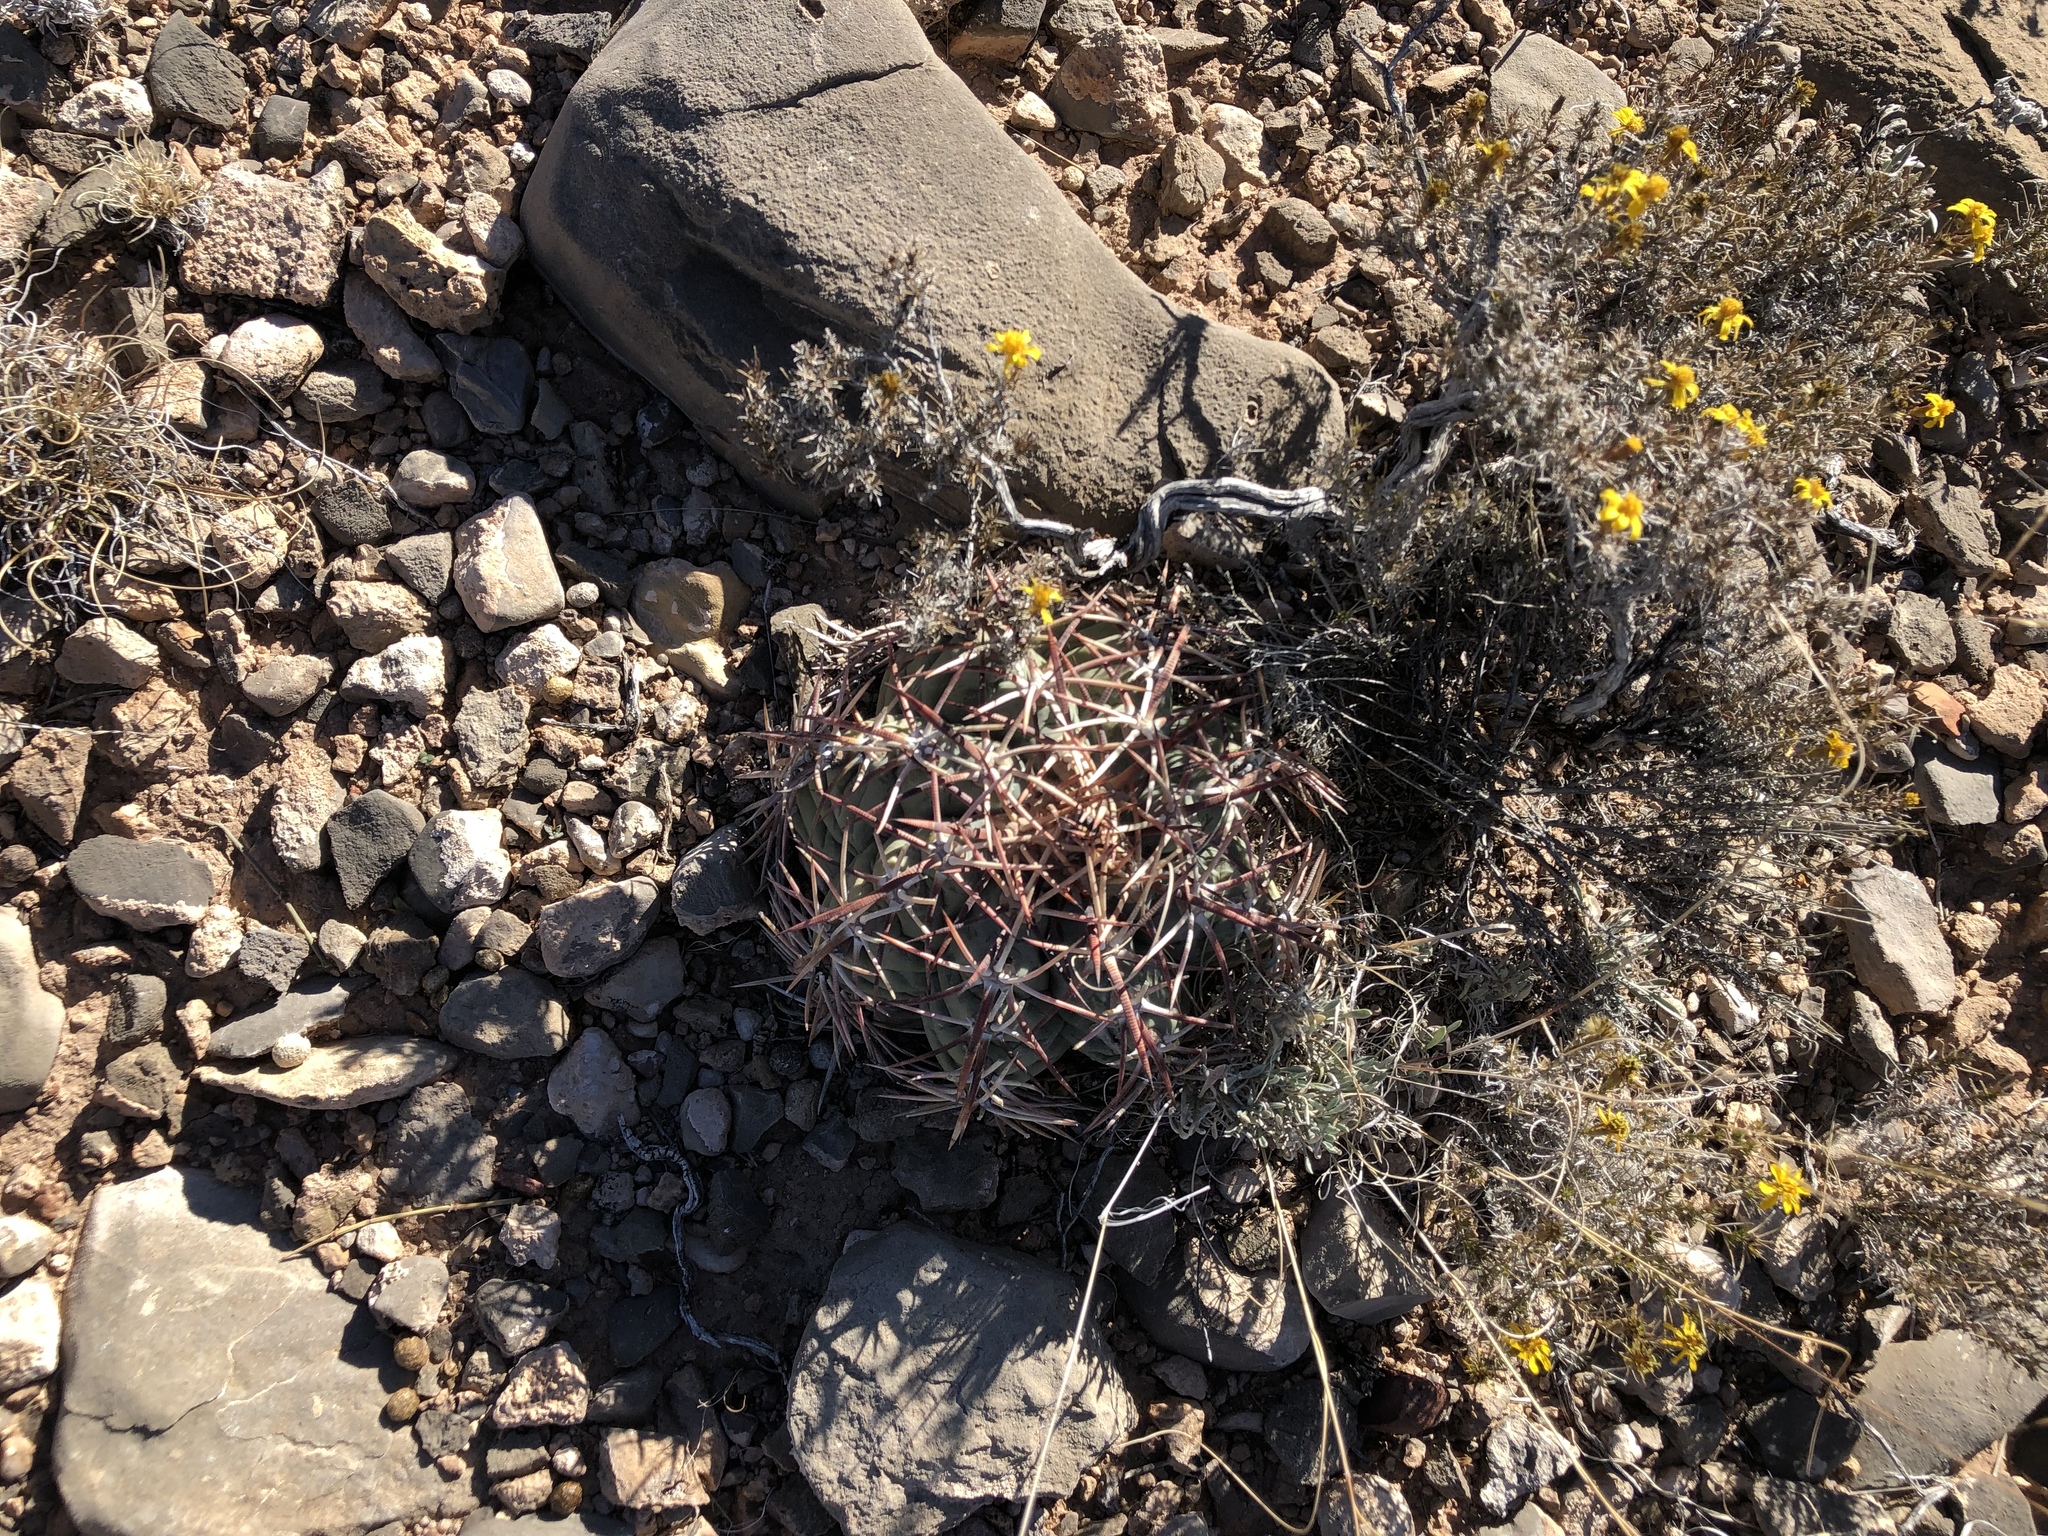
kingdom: Plantae
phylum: Tracheophyta
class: Magnoliopsida
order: Caryophyllales
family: Cactaceae
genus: Echinocactus
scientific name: Echinocactus horizonthalonius
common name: Devilshead
